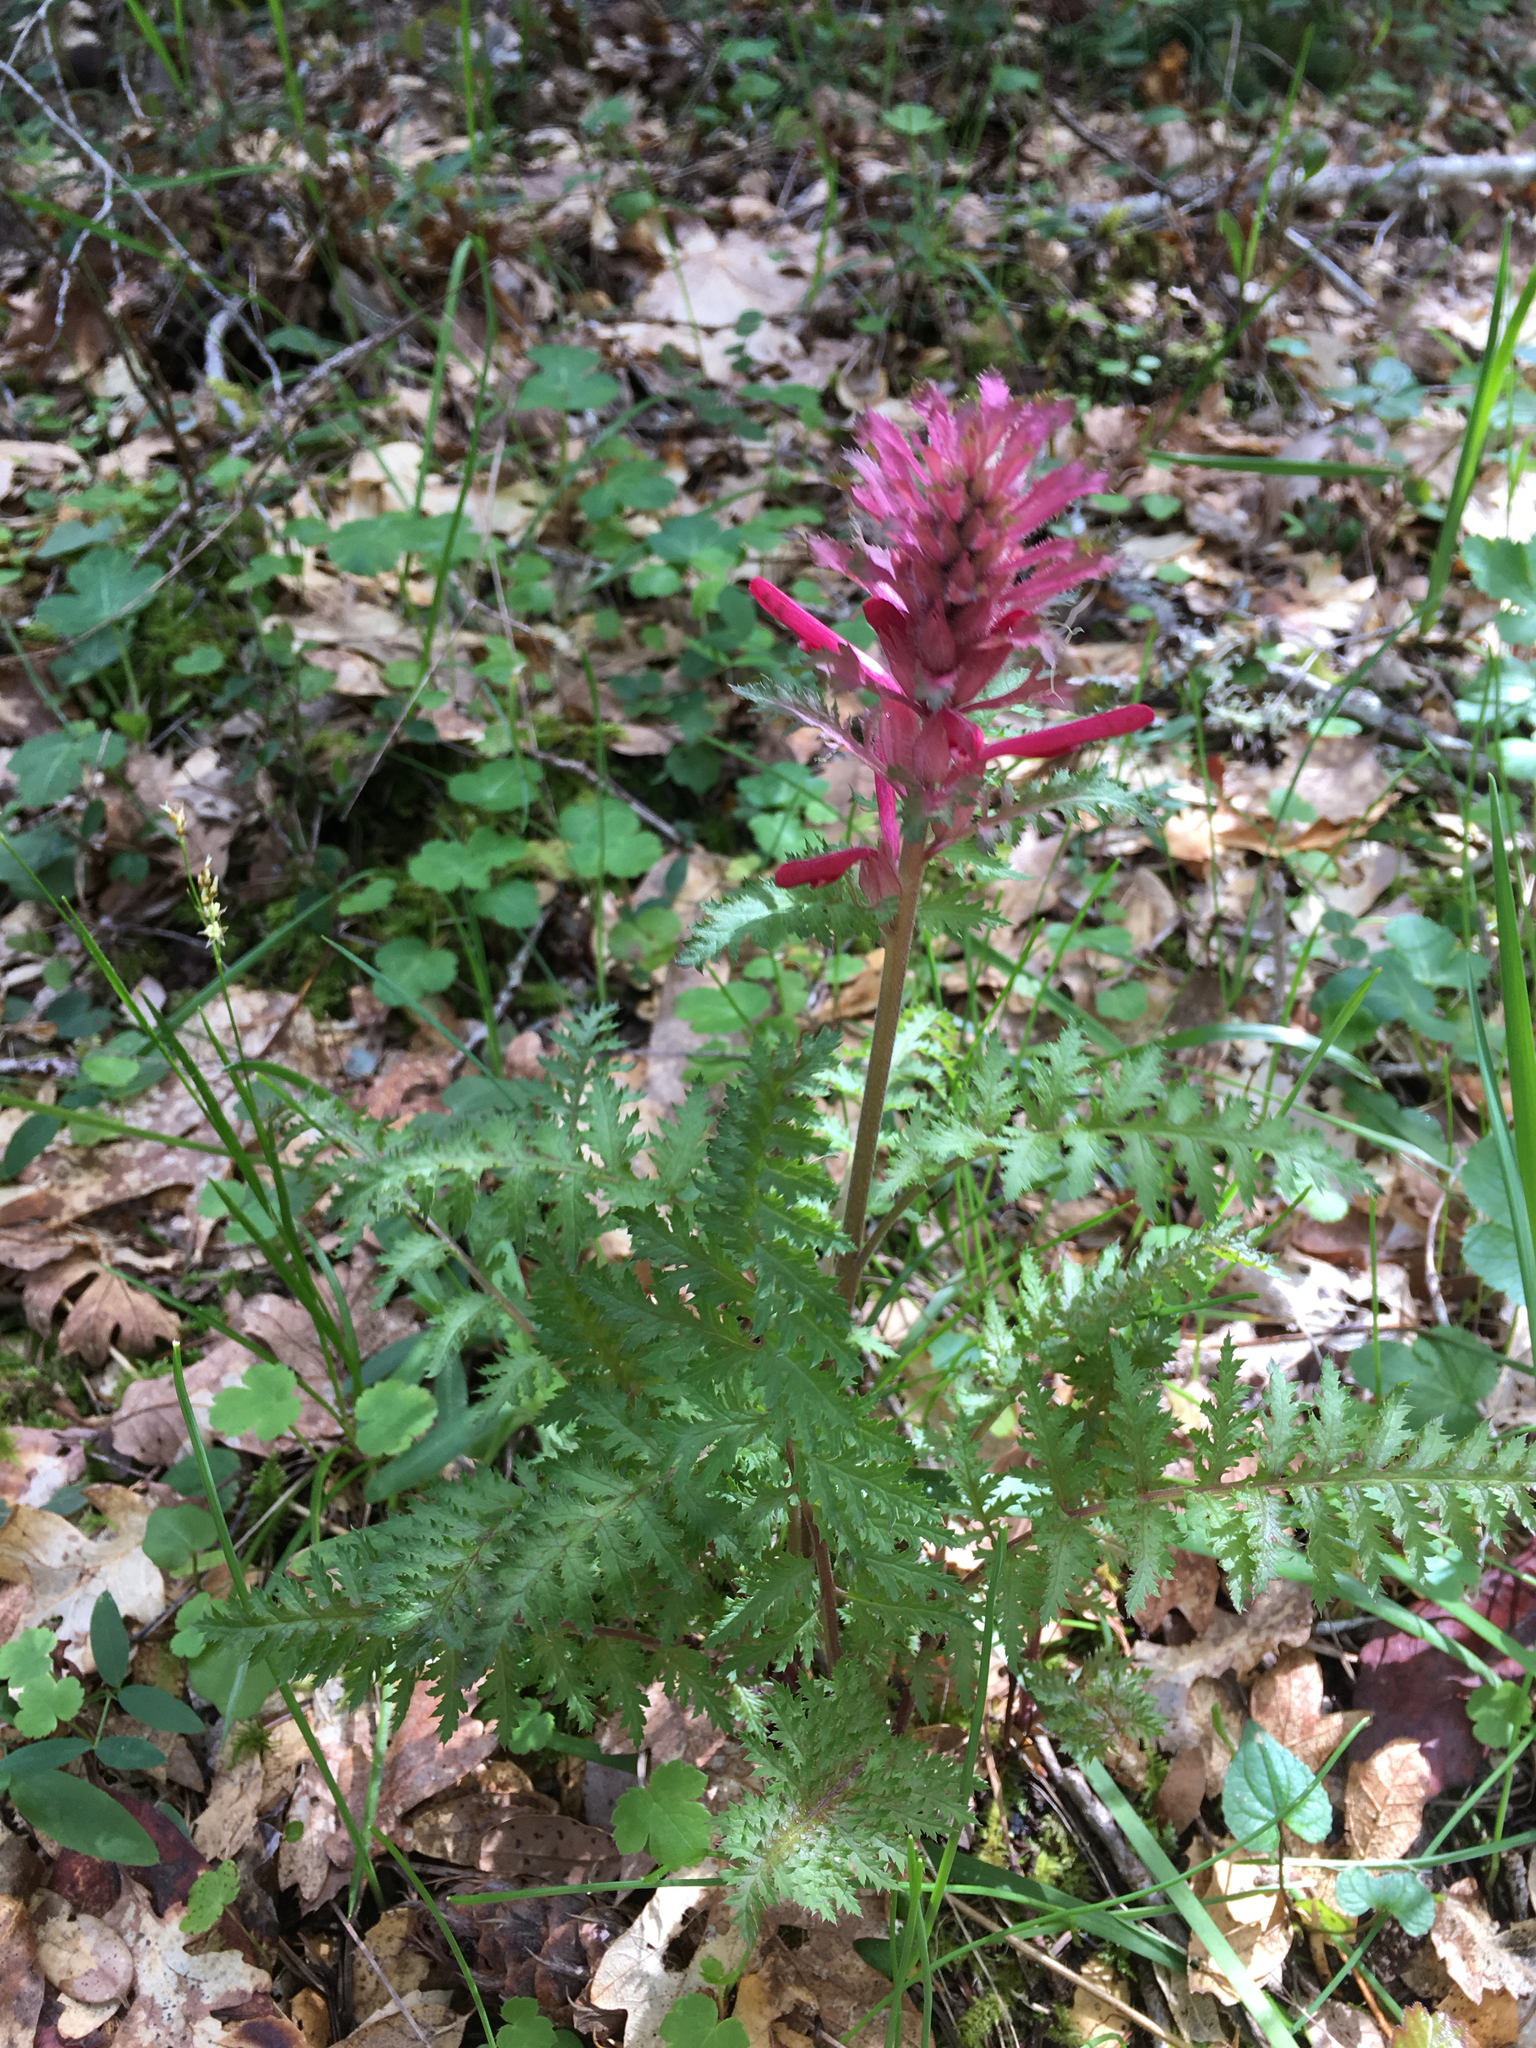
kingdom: Plantae
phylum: Tracheophyta
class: Magnoliopsida
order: Lamiales
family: Orobanchaceae
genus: Pedicularis
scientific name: Pedicularis densiflora
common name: Indian warrior
